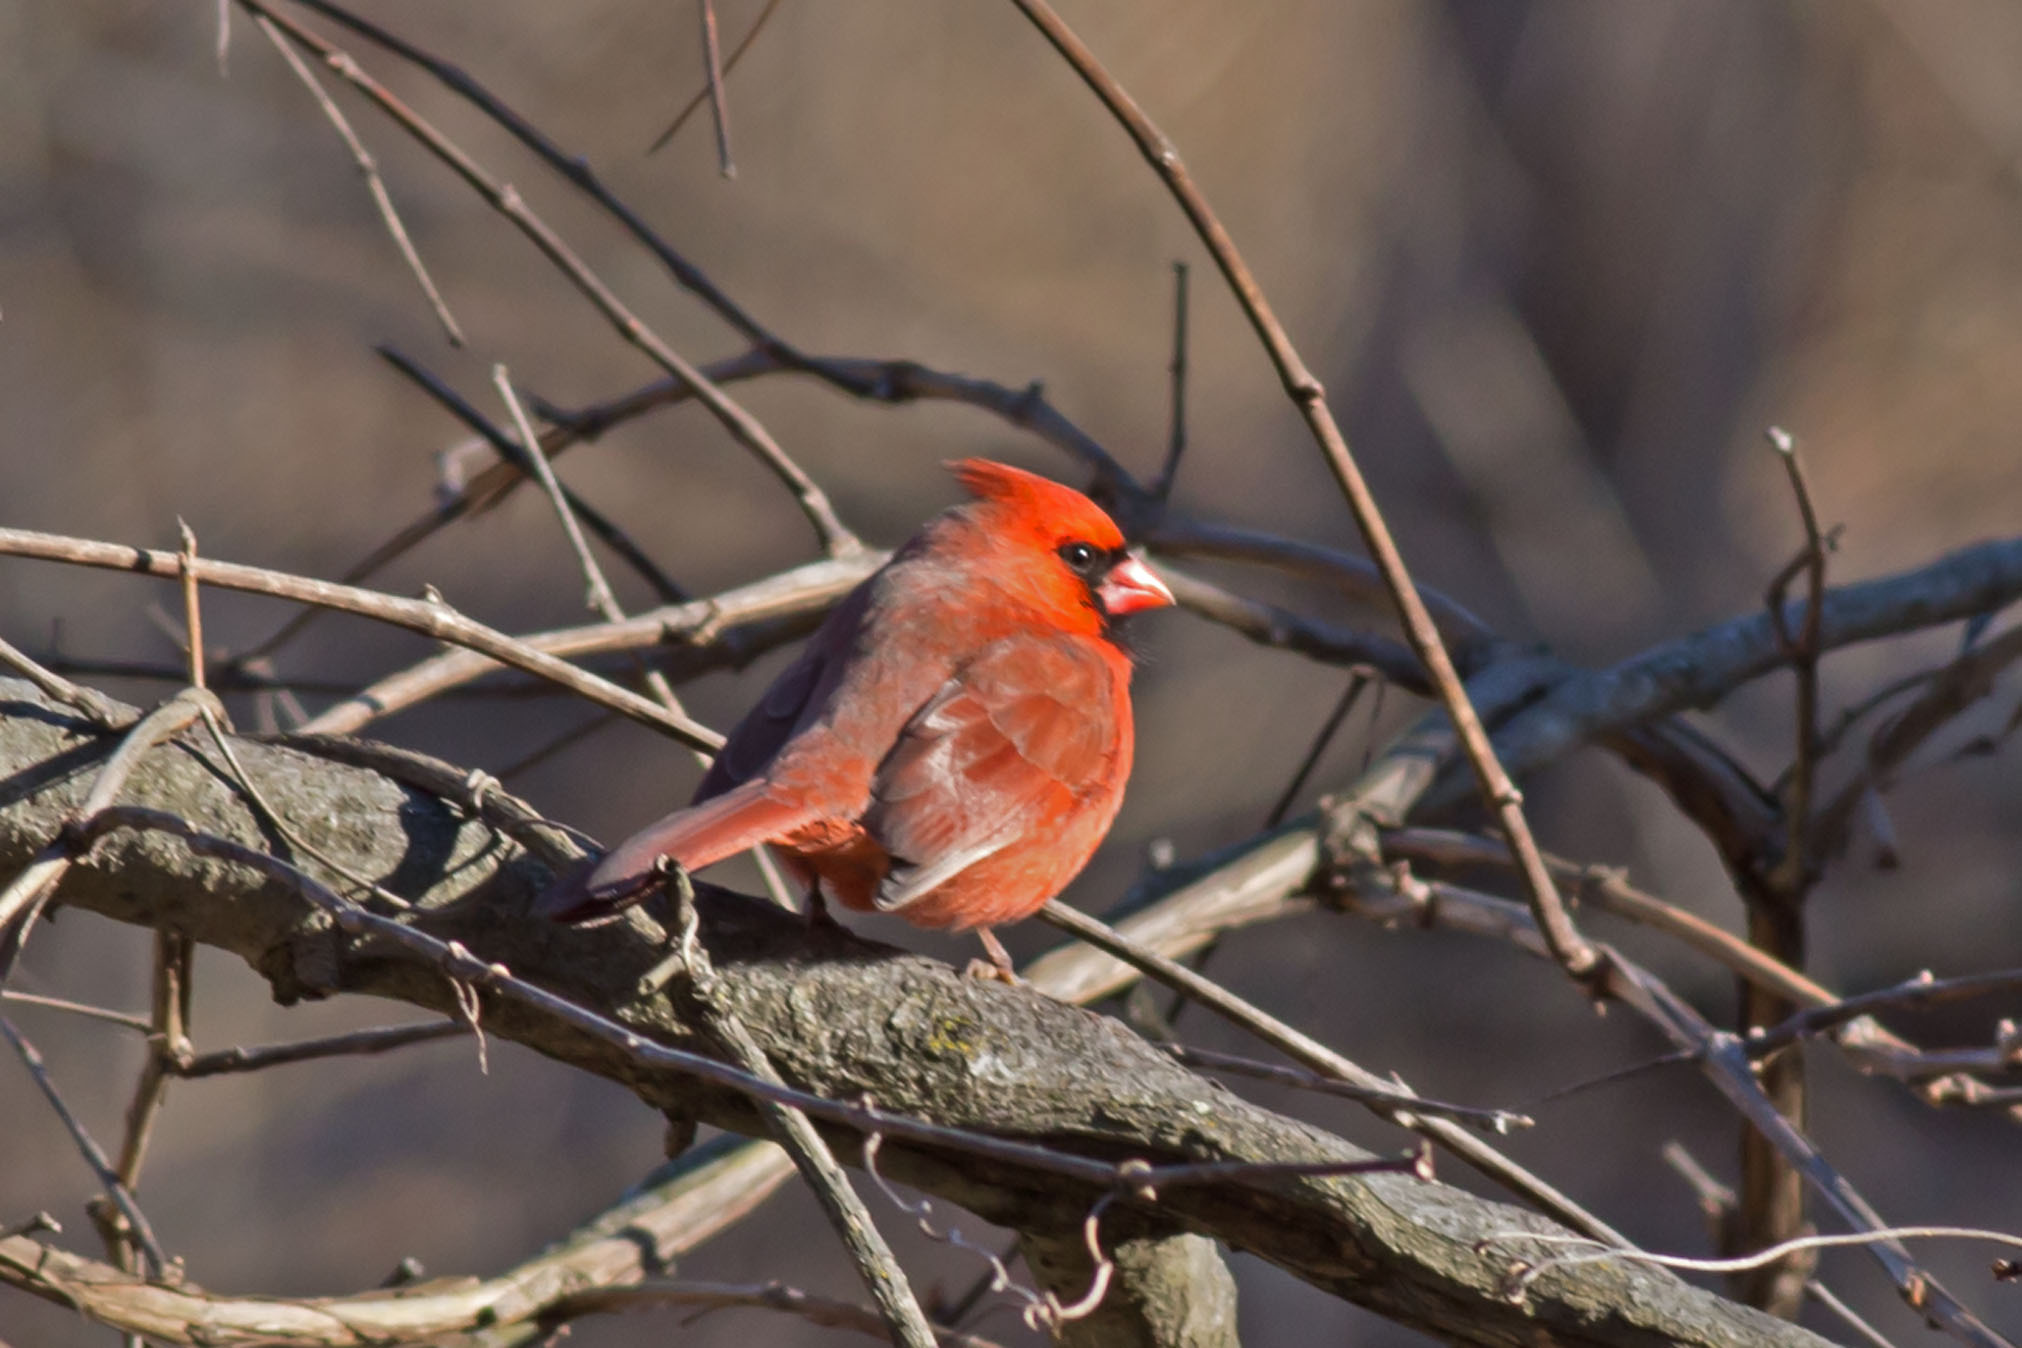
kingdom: Animalia
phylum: Chordata
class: Aves
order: Passeriformes
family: Cardinalidae
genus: Cardinalis
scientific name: Cardinalis cardinalis
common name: Northern cardinal
